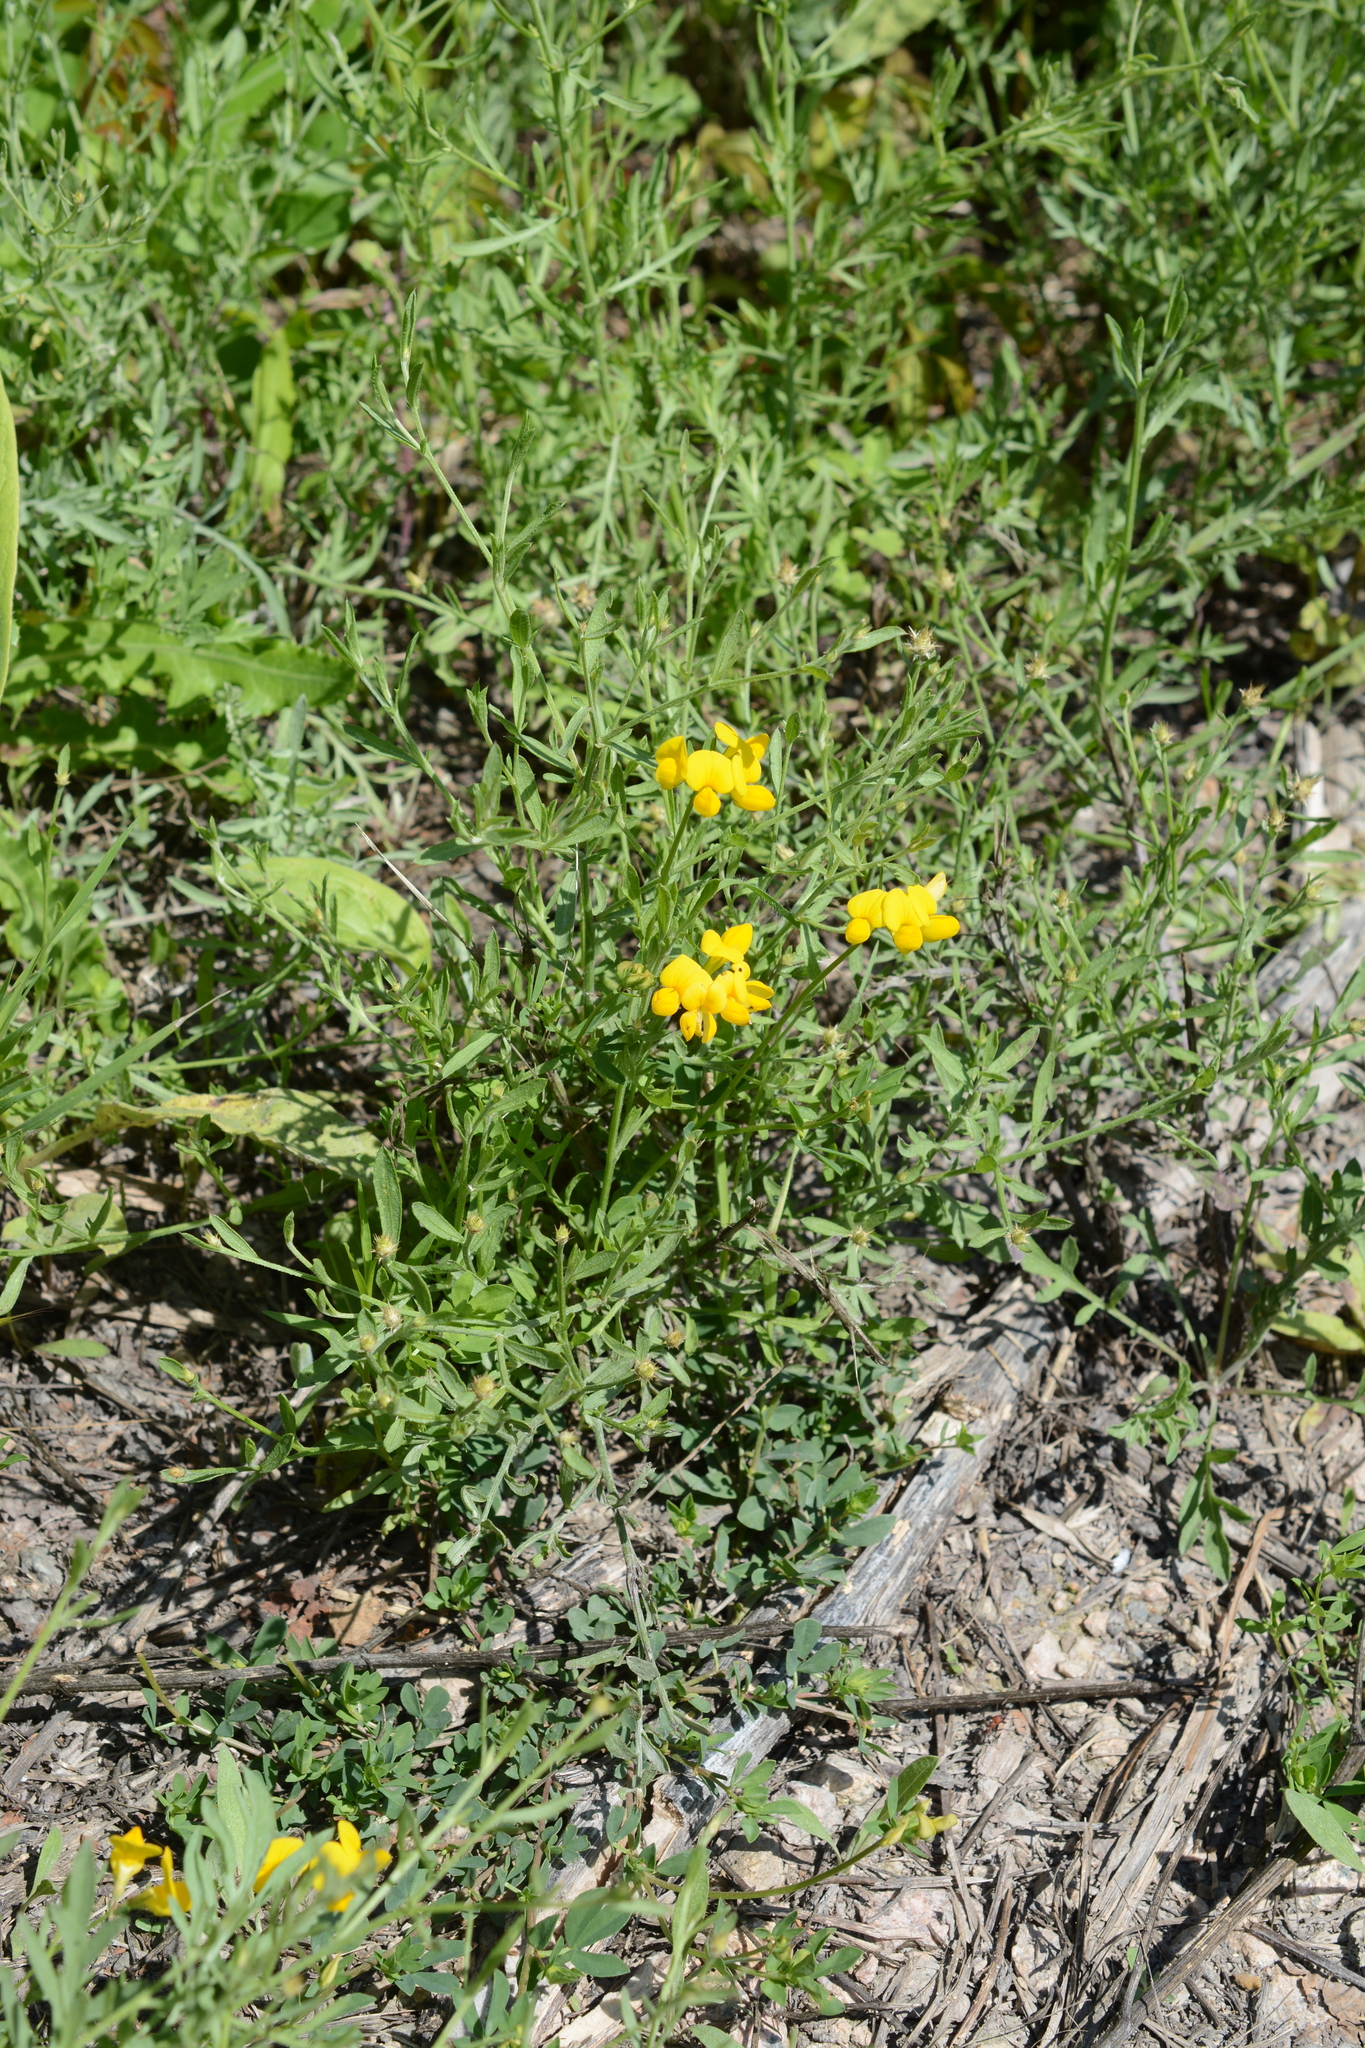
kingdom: Plantae
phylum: Tracheophyta
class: Magnoliopsida
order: Fabales
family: Fabaceae
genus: Lotus
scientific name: Lotus corniculatus
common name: Common bird's-foot-trefoil
